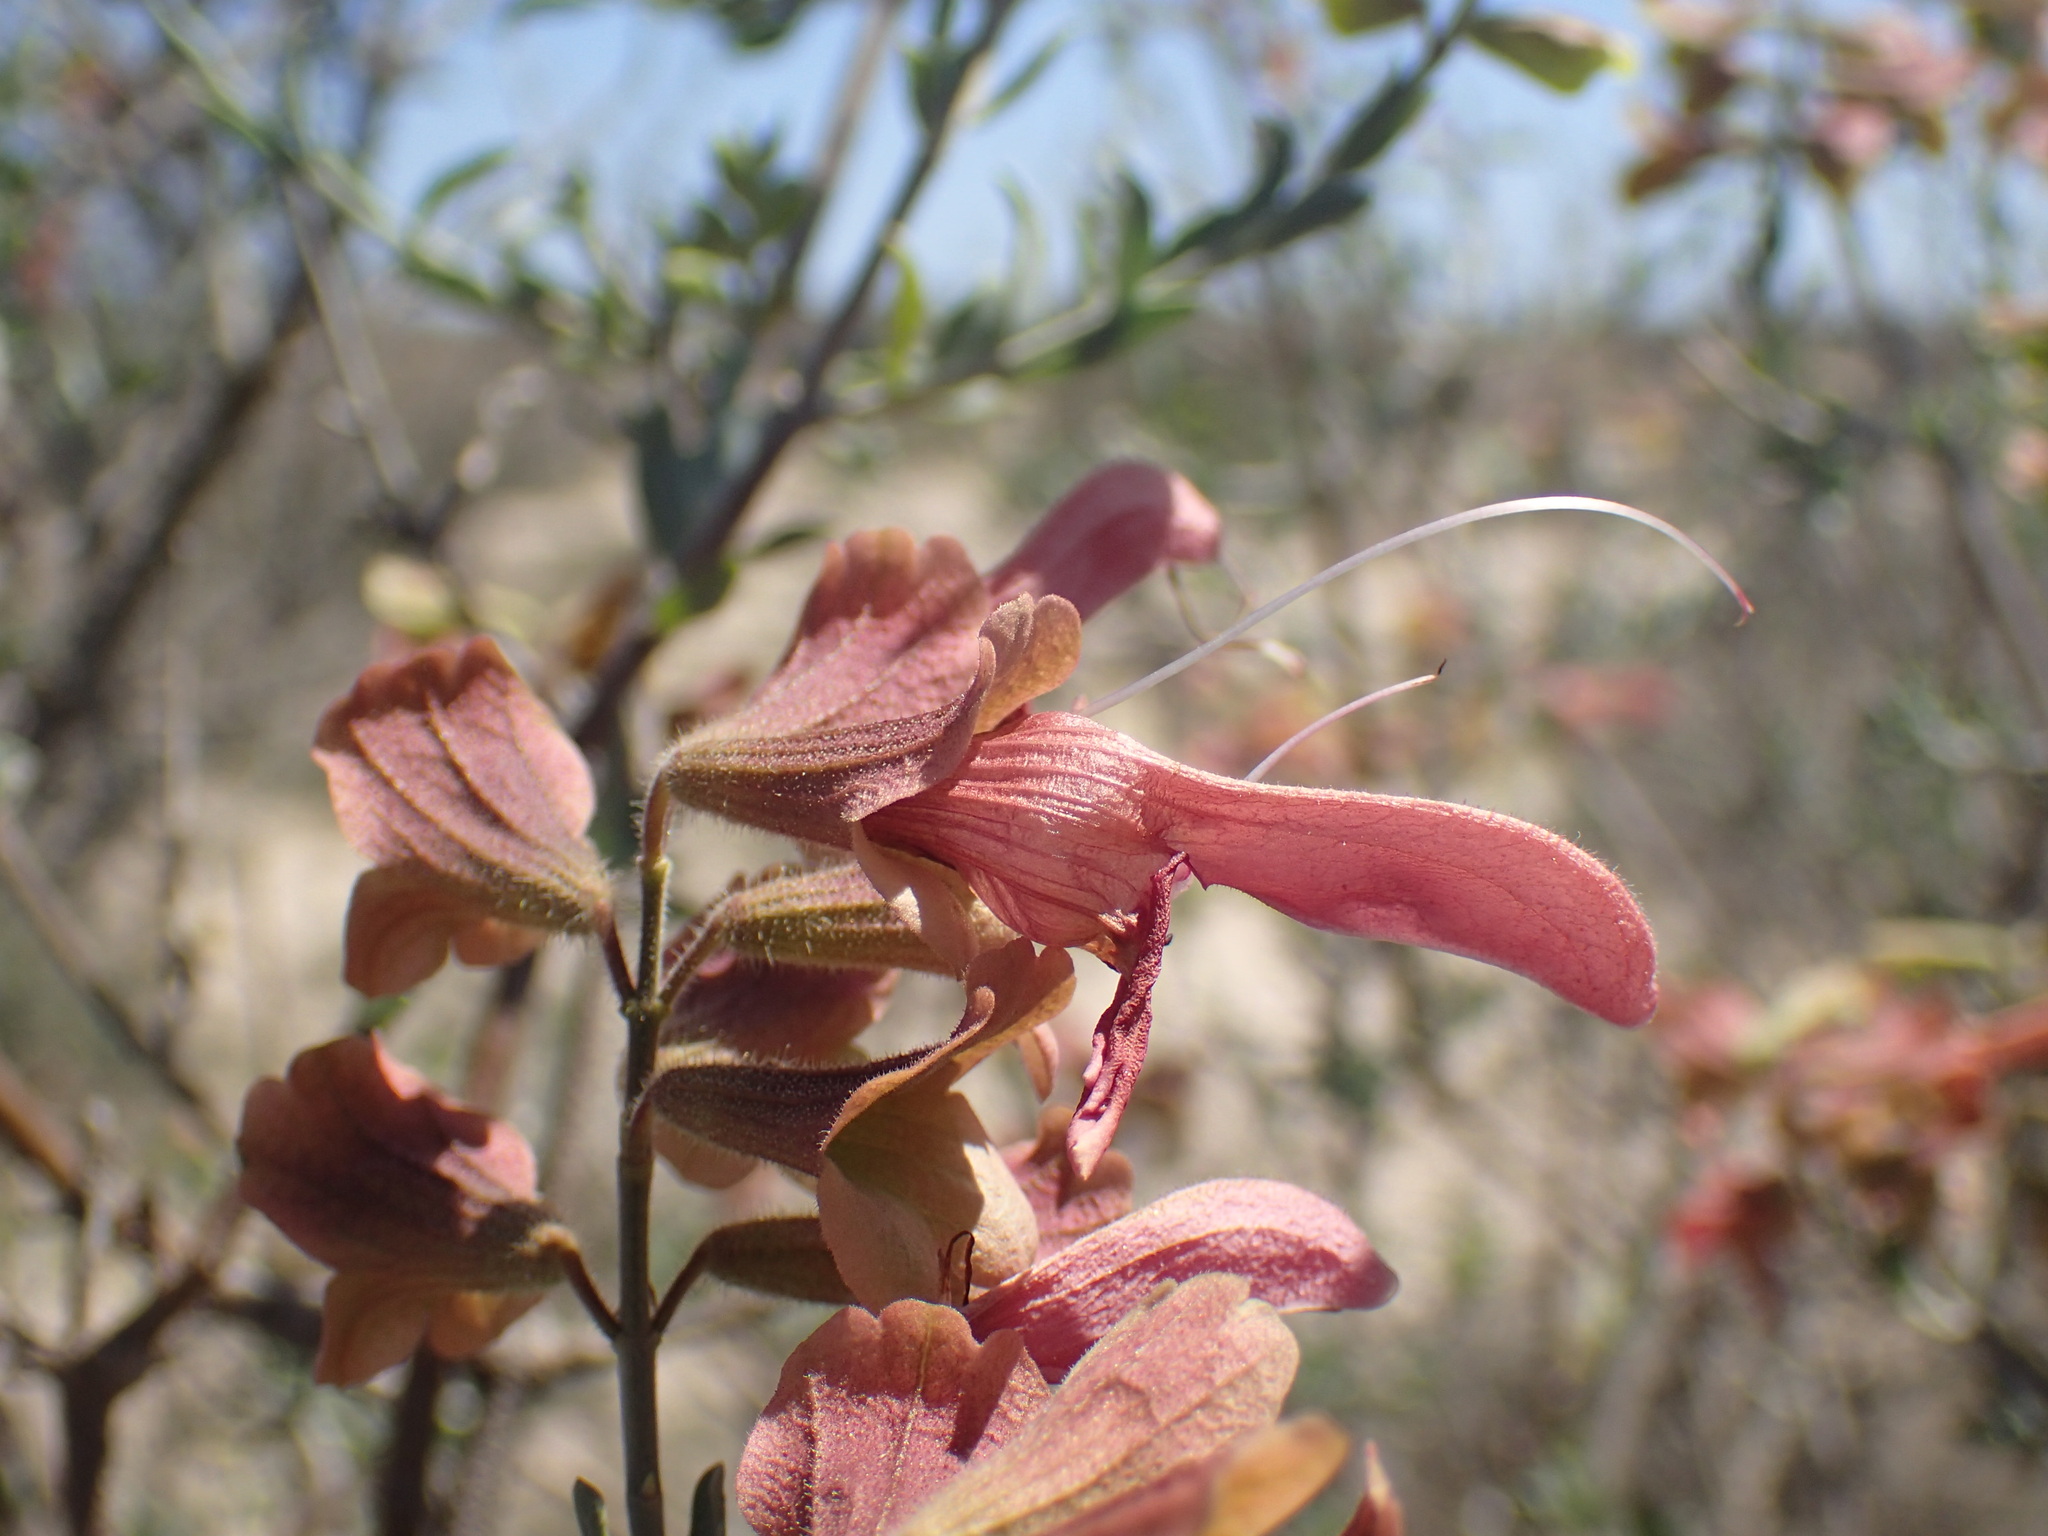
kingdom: Plantae
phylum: Tracheophyta
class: Magnoliopsida
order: Lamiales
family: Lamiaceae
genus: Salvia
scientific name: Salvia lanceolata
